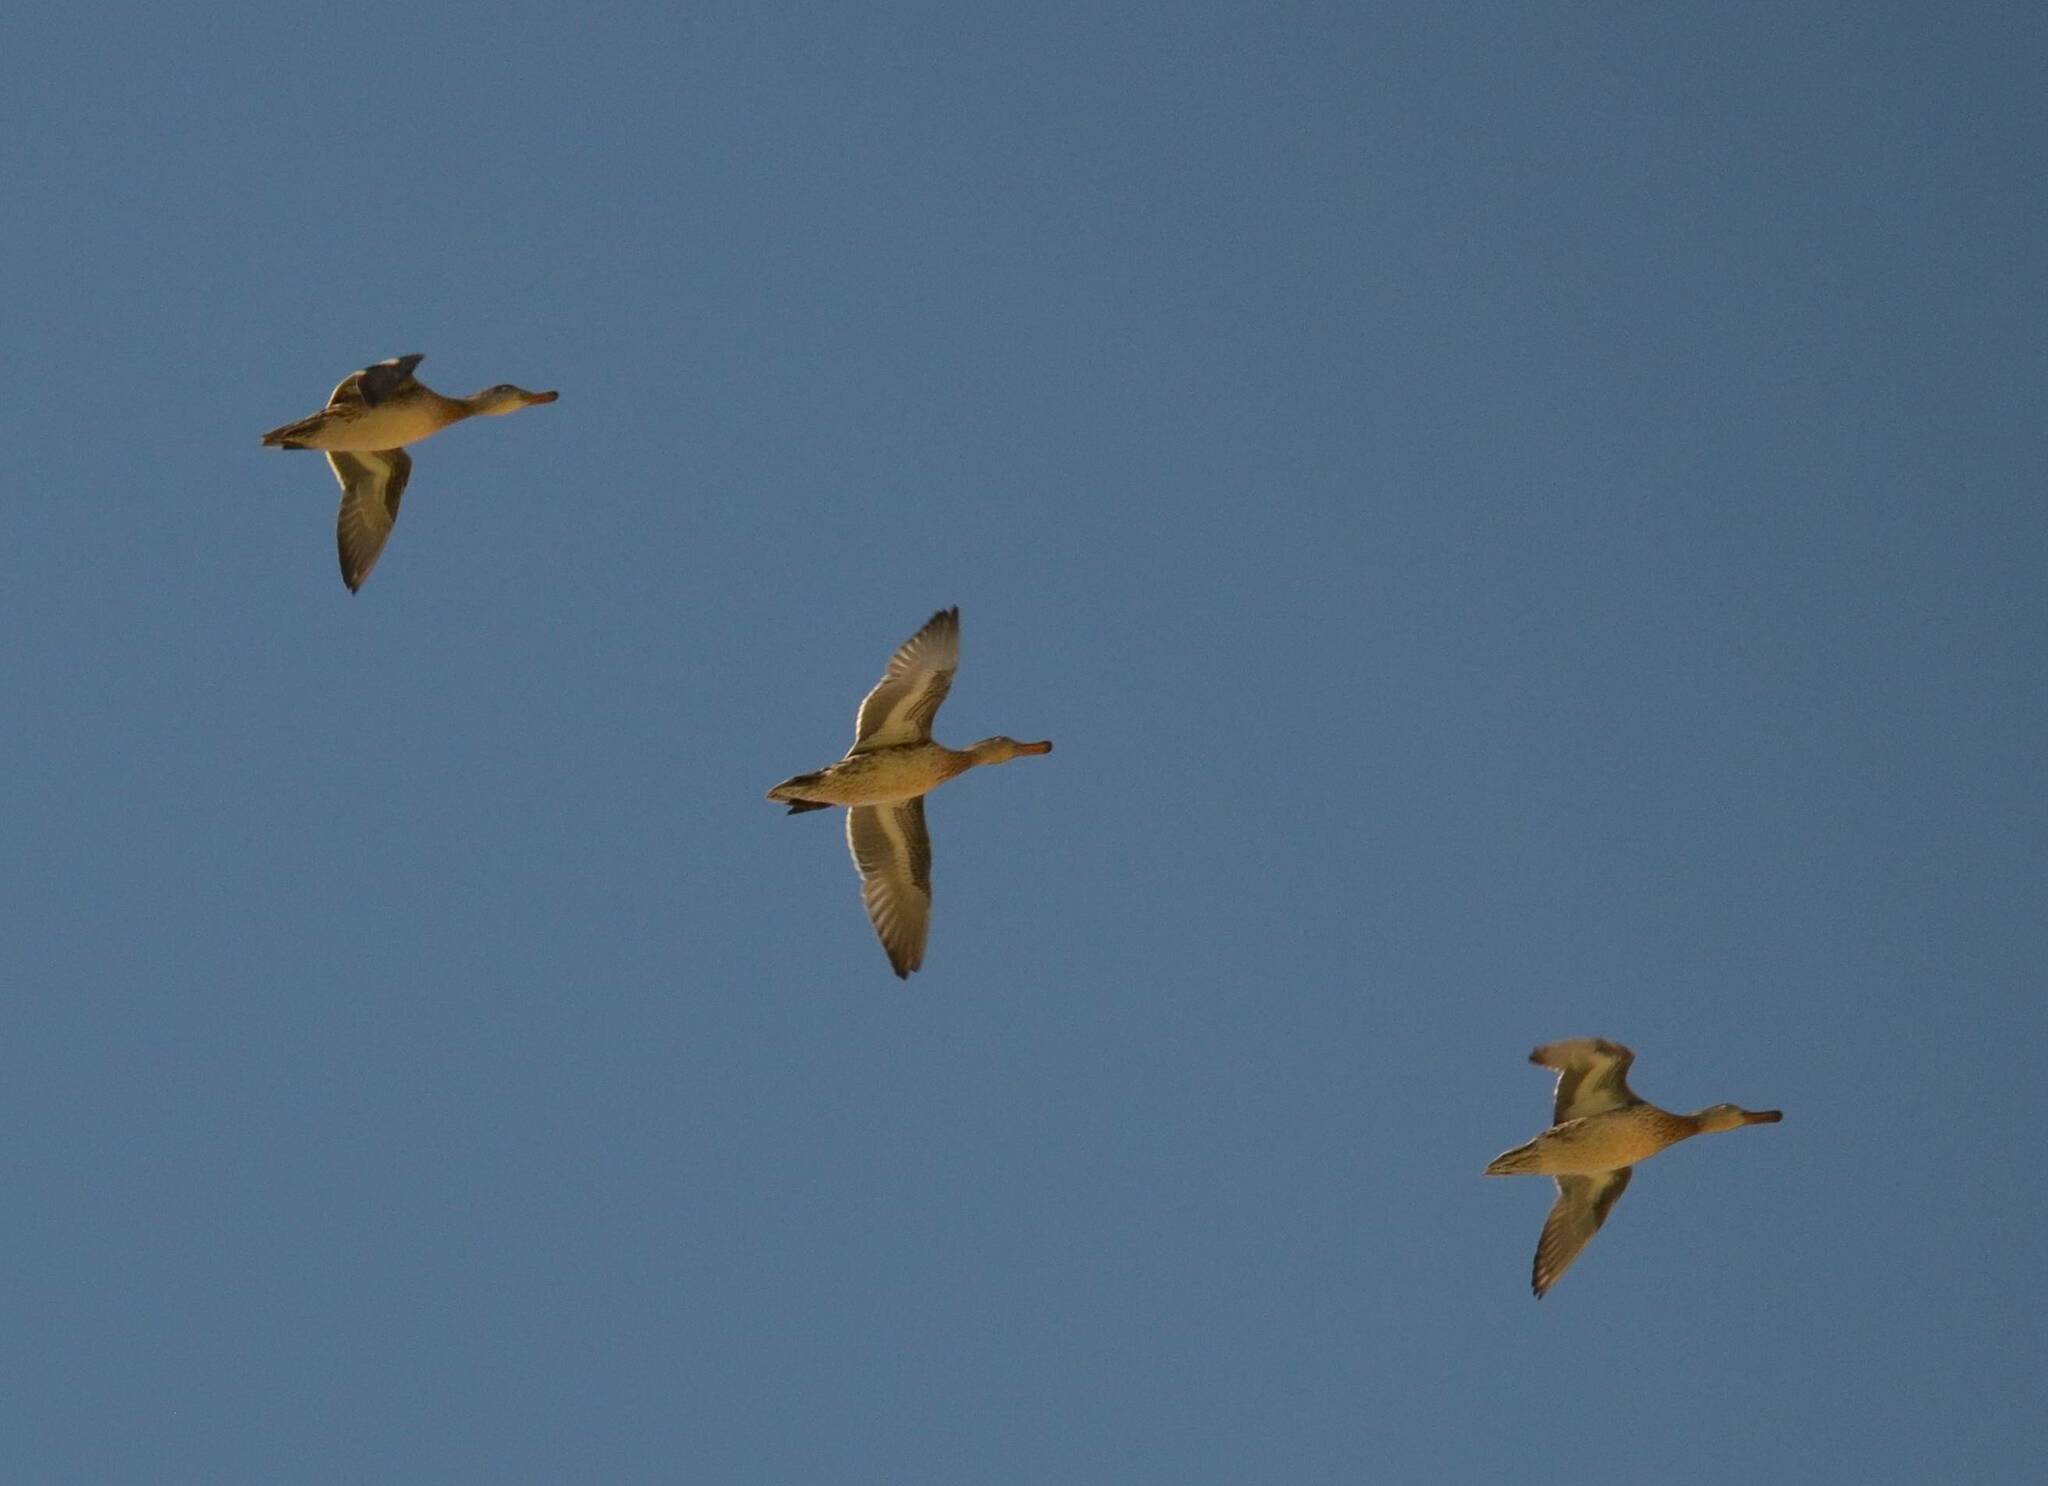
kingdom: Animalia
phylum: Chordata
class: Aves
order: Anseriformes
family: Anatidae
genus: Anas
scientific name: Anas crecca
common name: Eurasian teal
